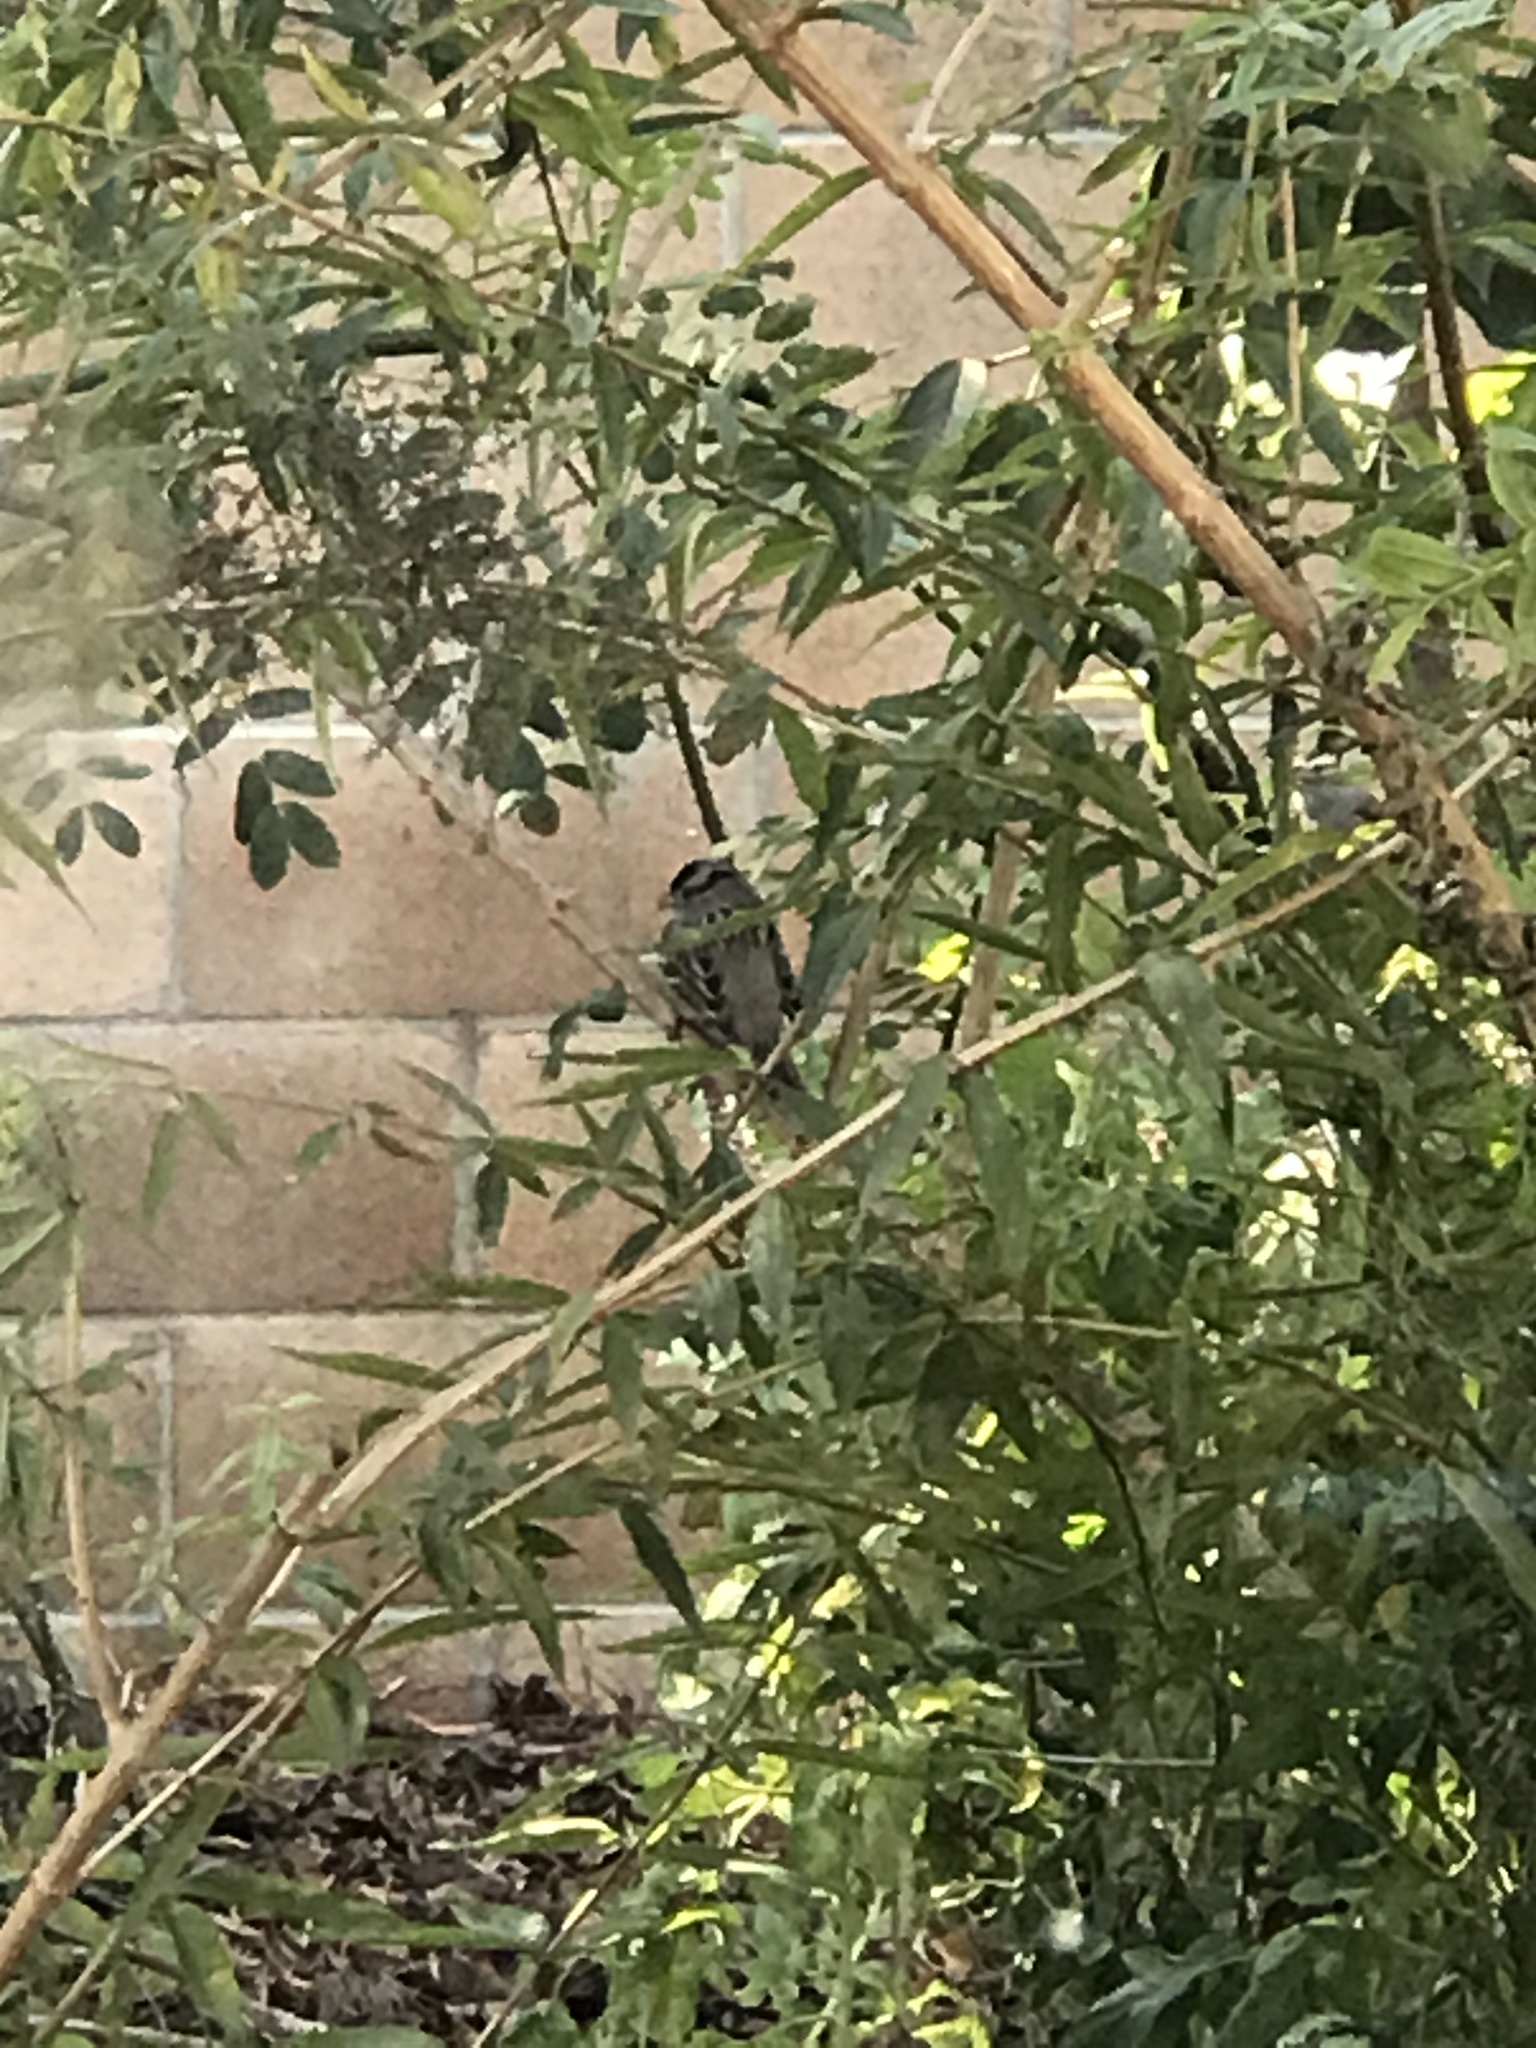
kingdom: Animalia
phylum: Chordata
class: Aves
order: Passeriformes
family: Passerellidae
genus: Zonotrichia
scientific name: Zonotrichia leucophrys
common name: White-crowned sparrow
